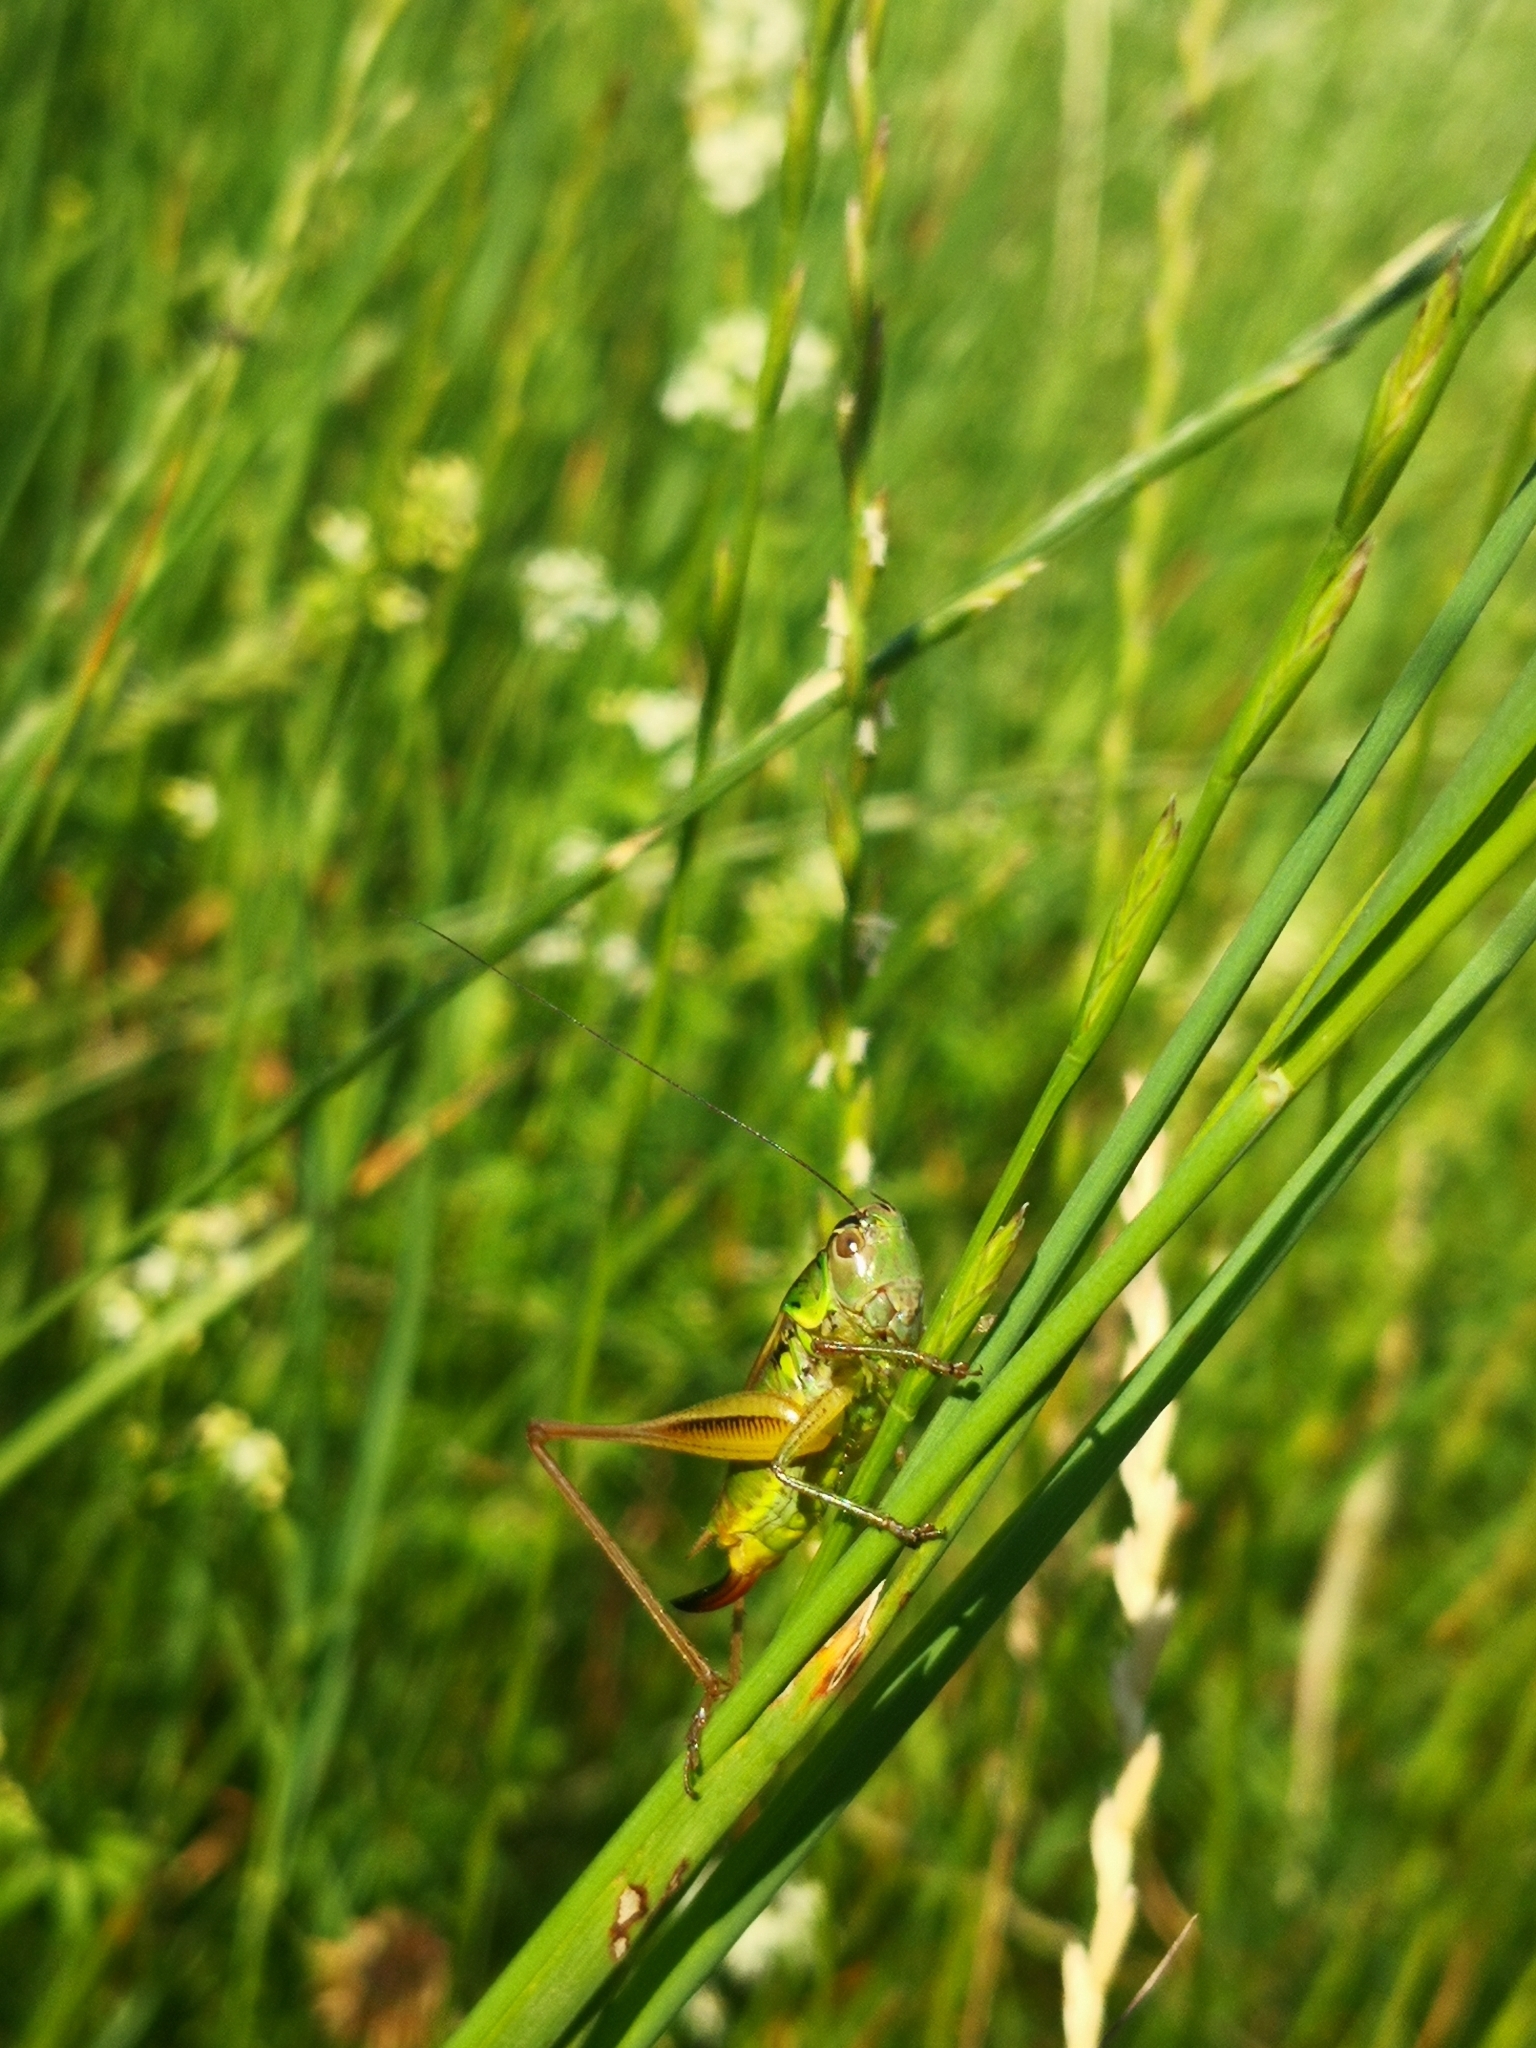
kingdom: Animalia
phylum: Arthropoda
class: Insecta
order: Orthoptera
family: Tettigoniidae
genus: Roeseliana
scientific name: Roeseliana roeselii
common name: Roesel's bush cricket
